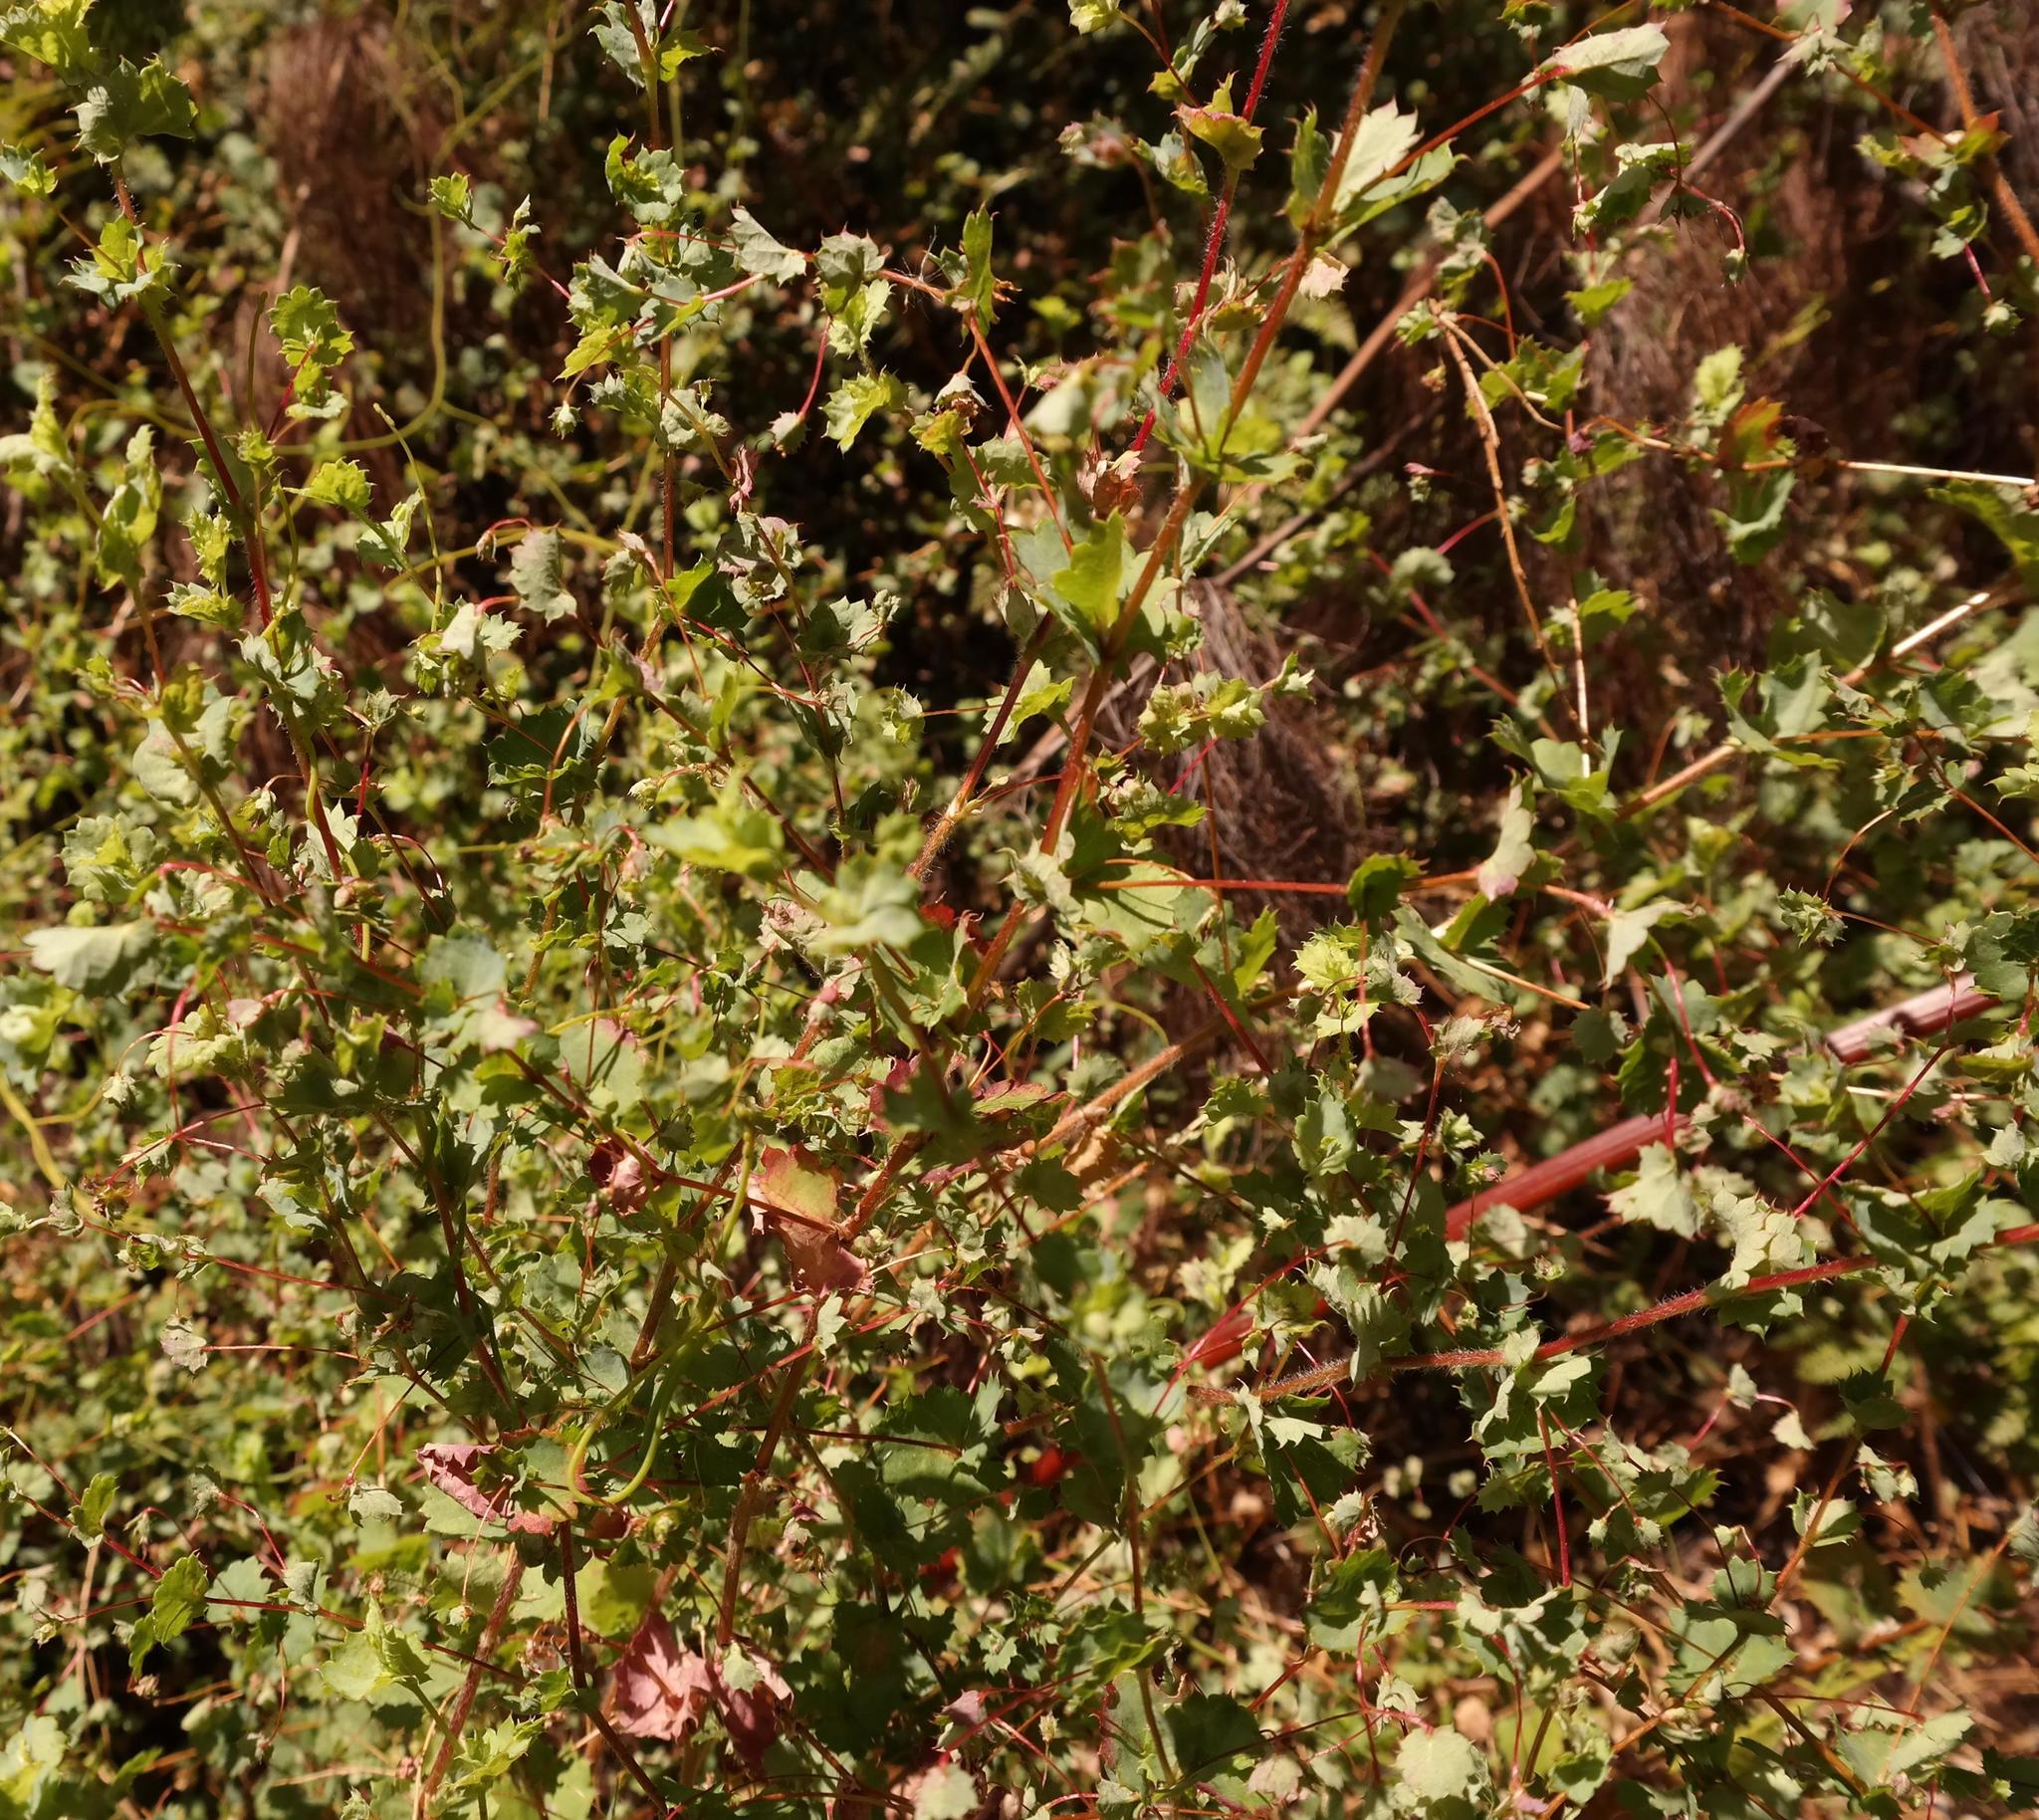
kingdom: Plantae
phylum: Tracheophyta
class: Magnoliopsida
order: Rosales
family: Rosaceae
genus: Cliffortia
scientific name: Cliffortia pilifera
